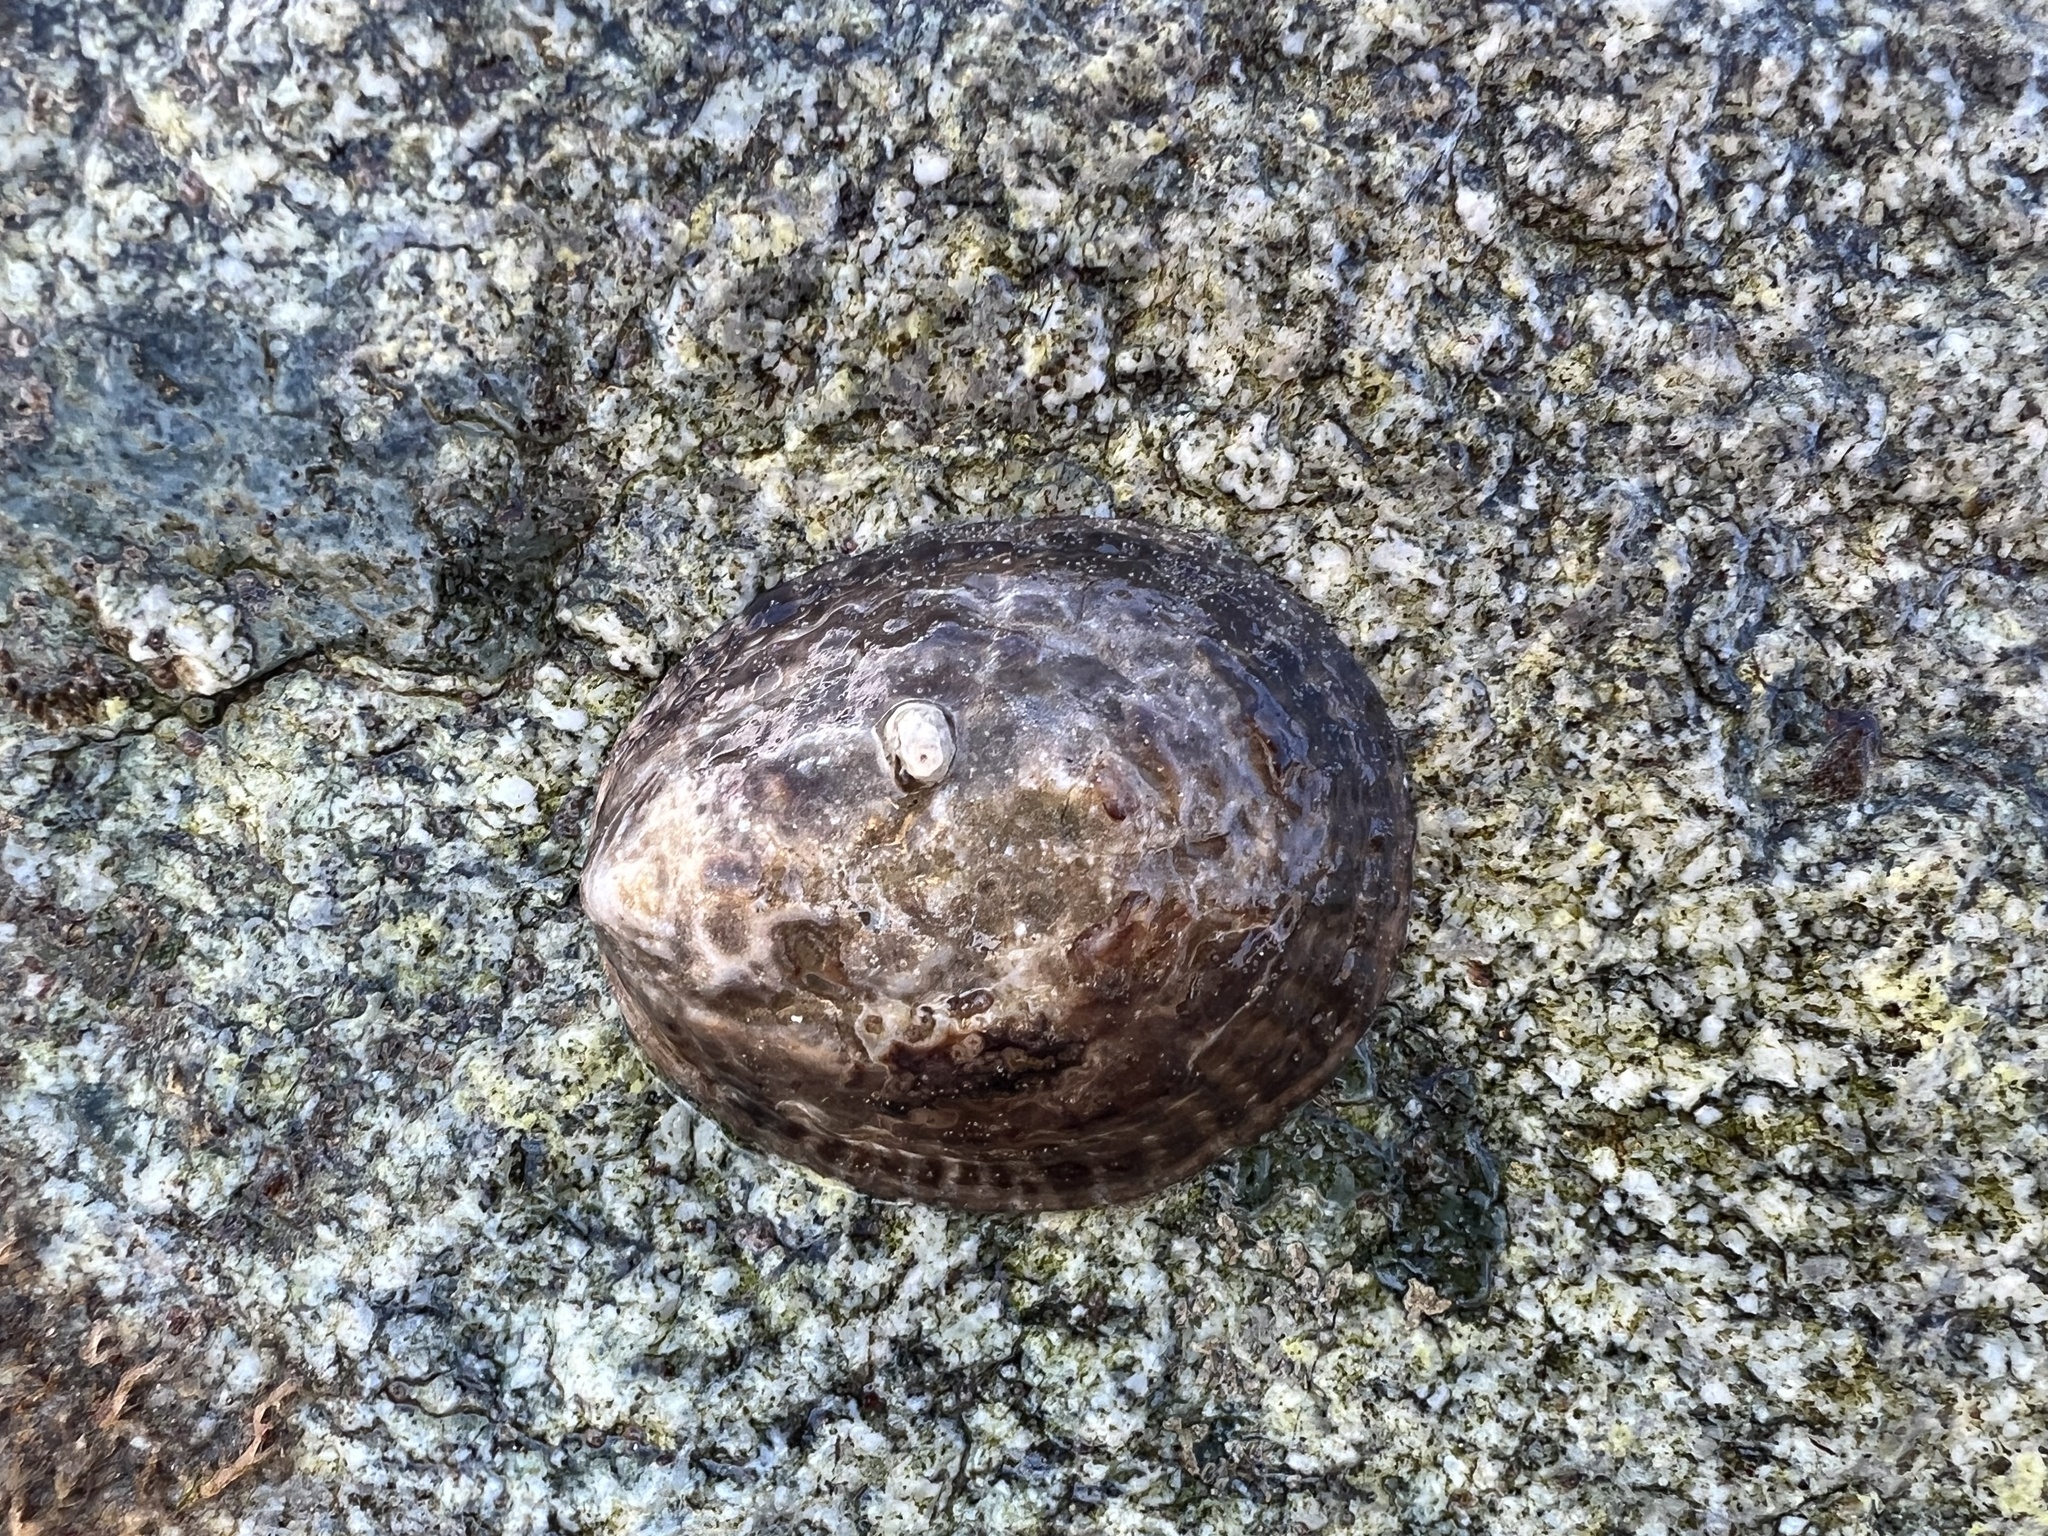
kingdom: Animalia
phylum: Mollusca
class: Gastropoda
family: Lottiidae
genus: Lottia
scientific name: Lottia gigantea
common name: Owl limpet
